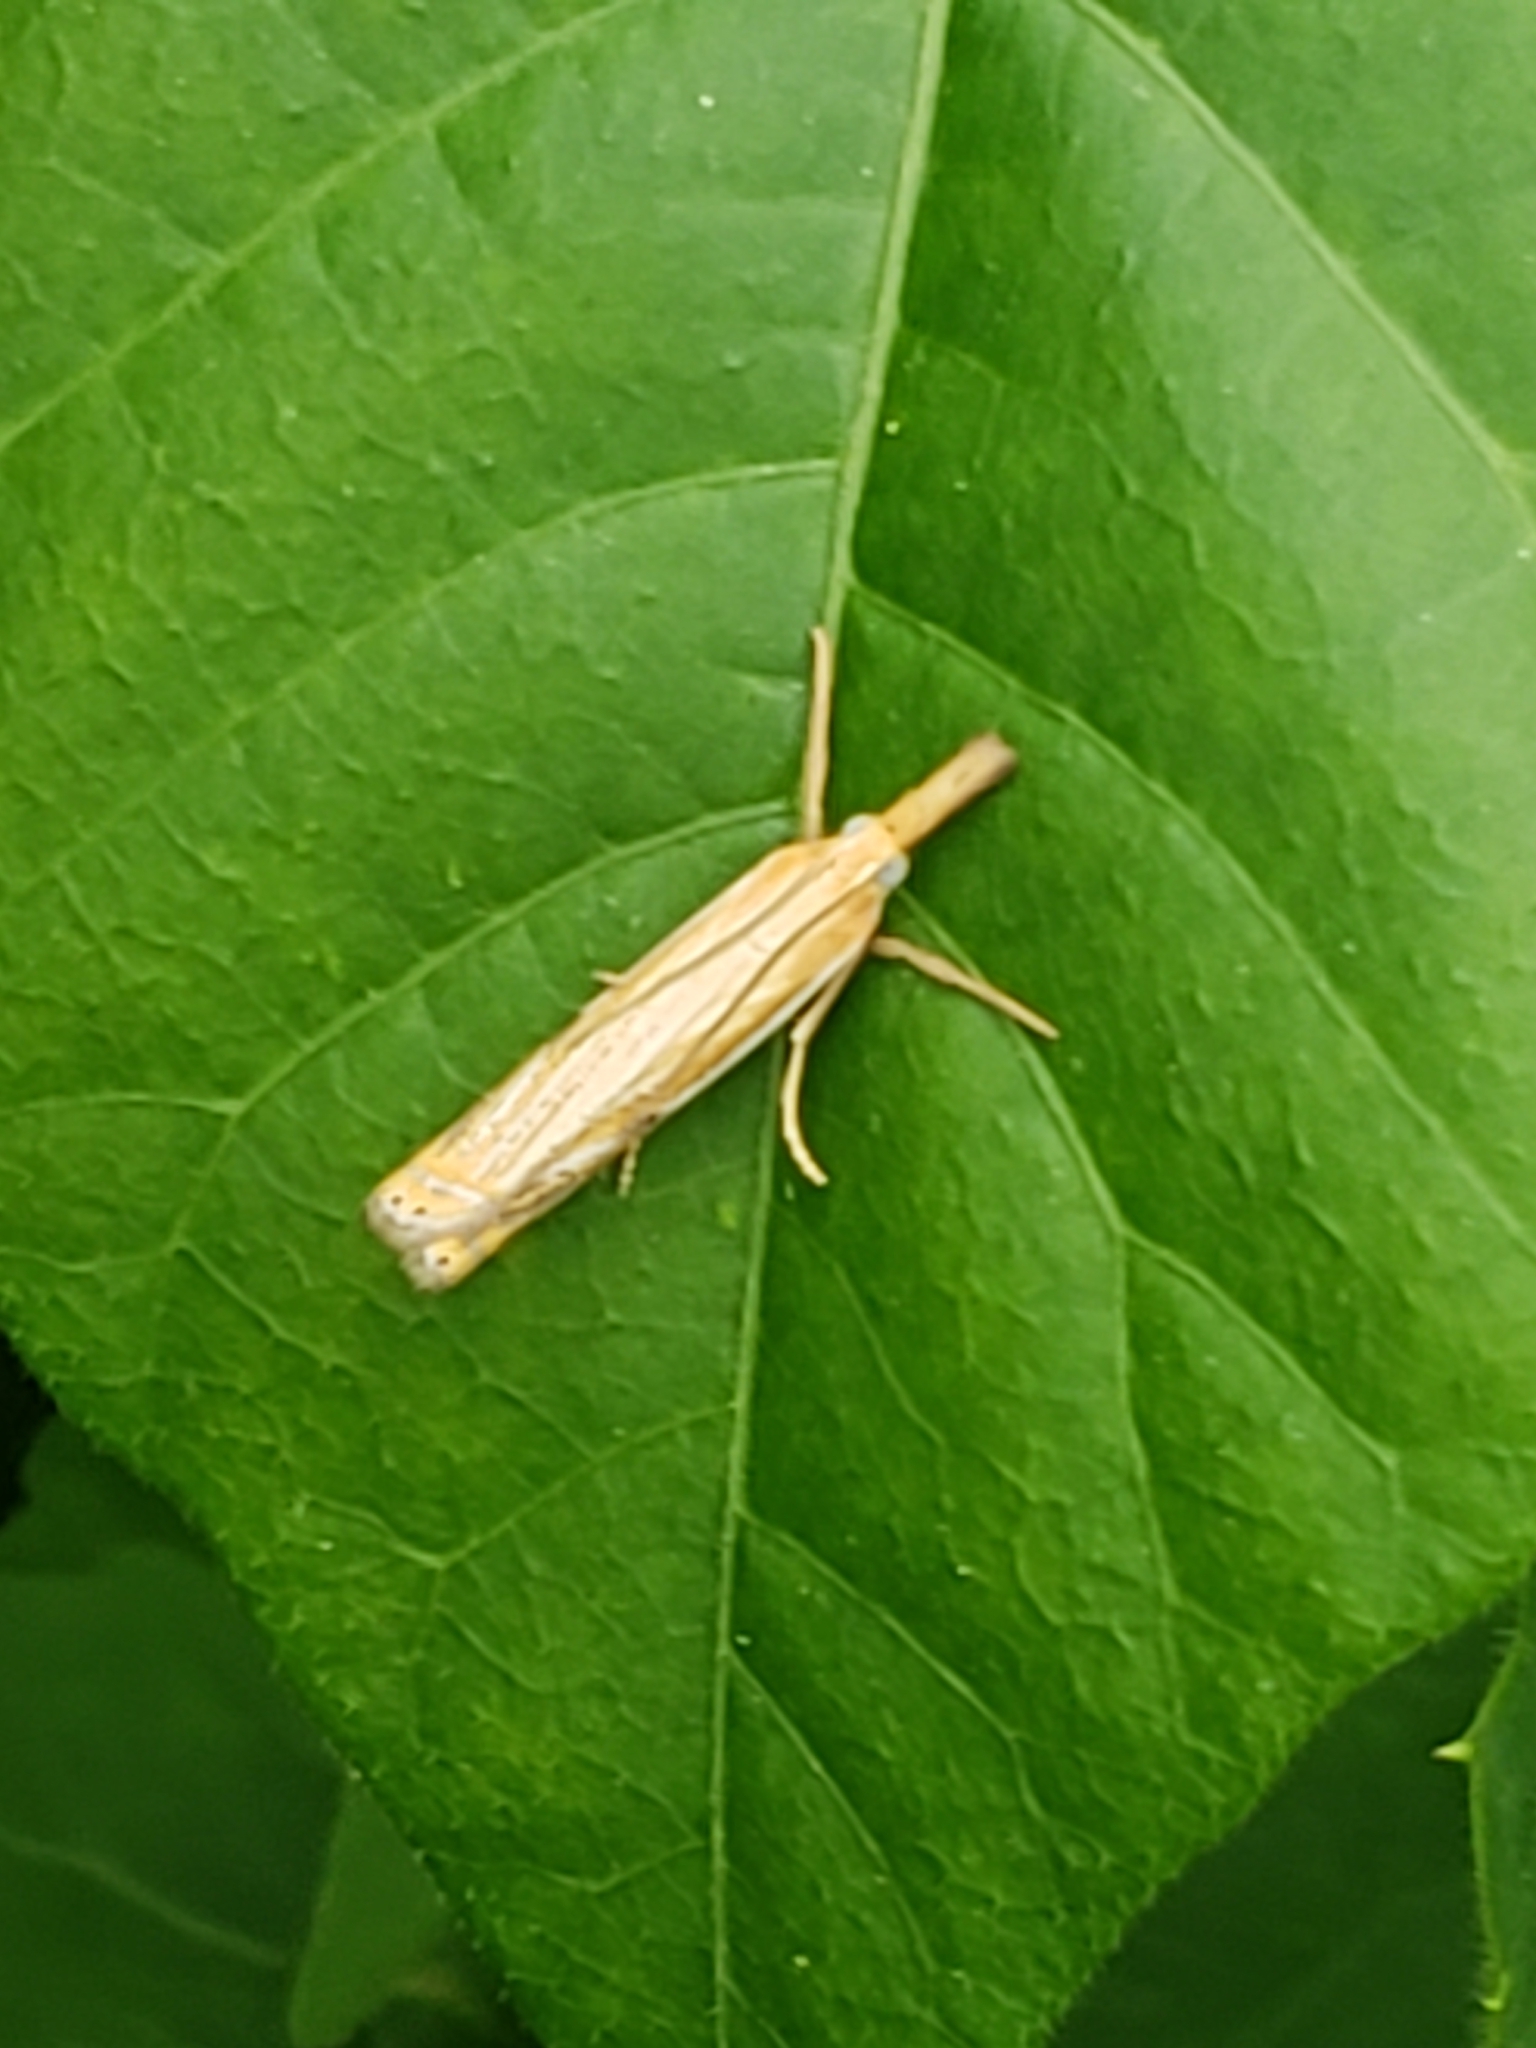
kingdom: Animalia
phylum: Arthropoda
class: Insecta
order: Lepidoptera
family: Crambidae
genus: Crambus
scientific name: Crambus saltuellus
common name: Pasture grass-veneer
